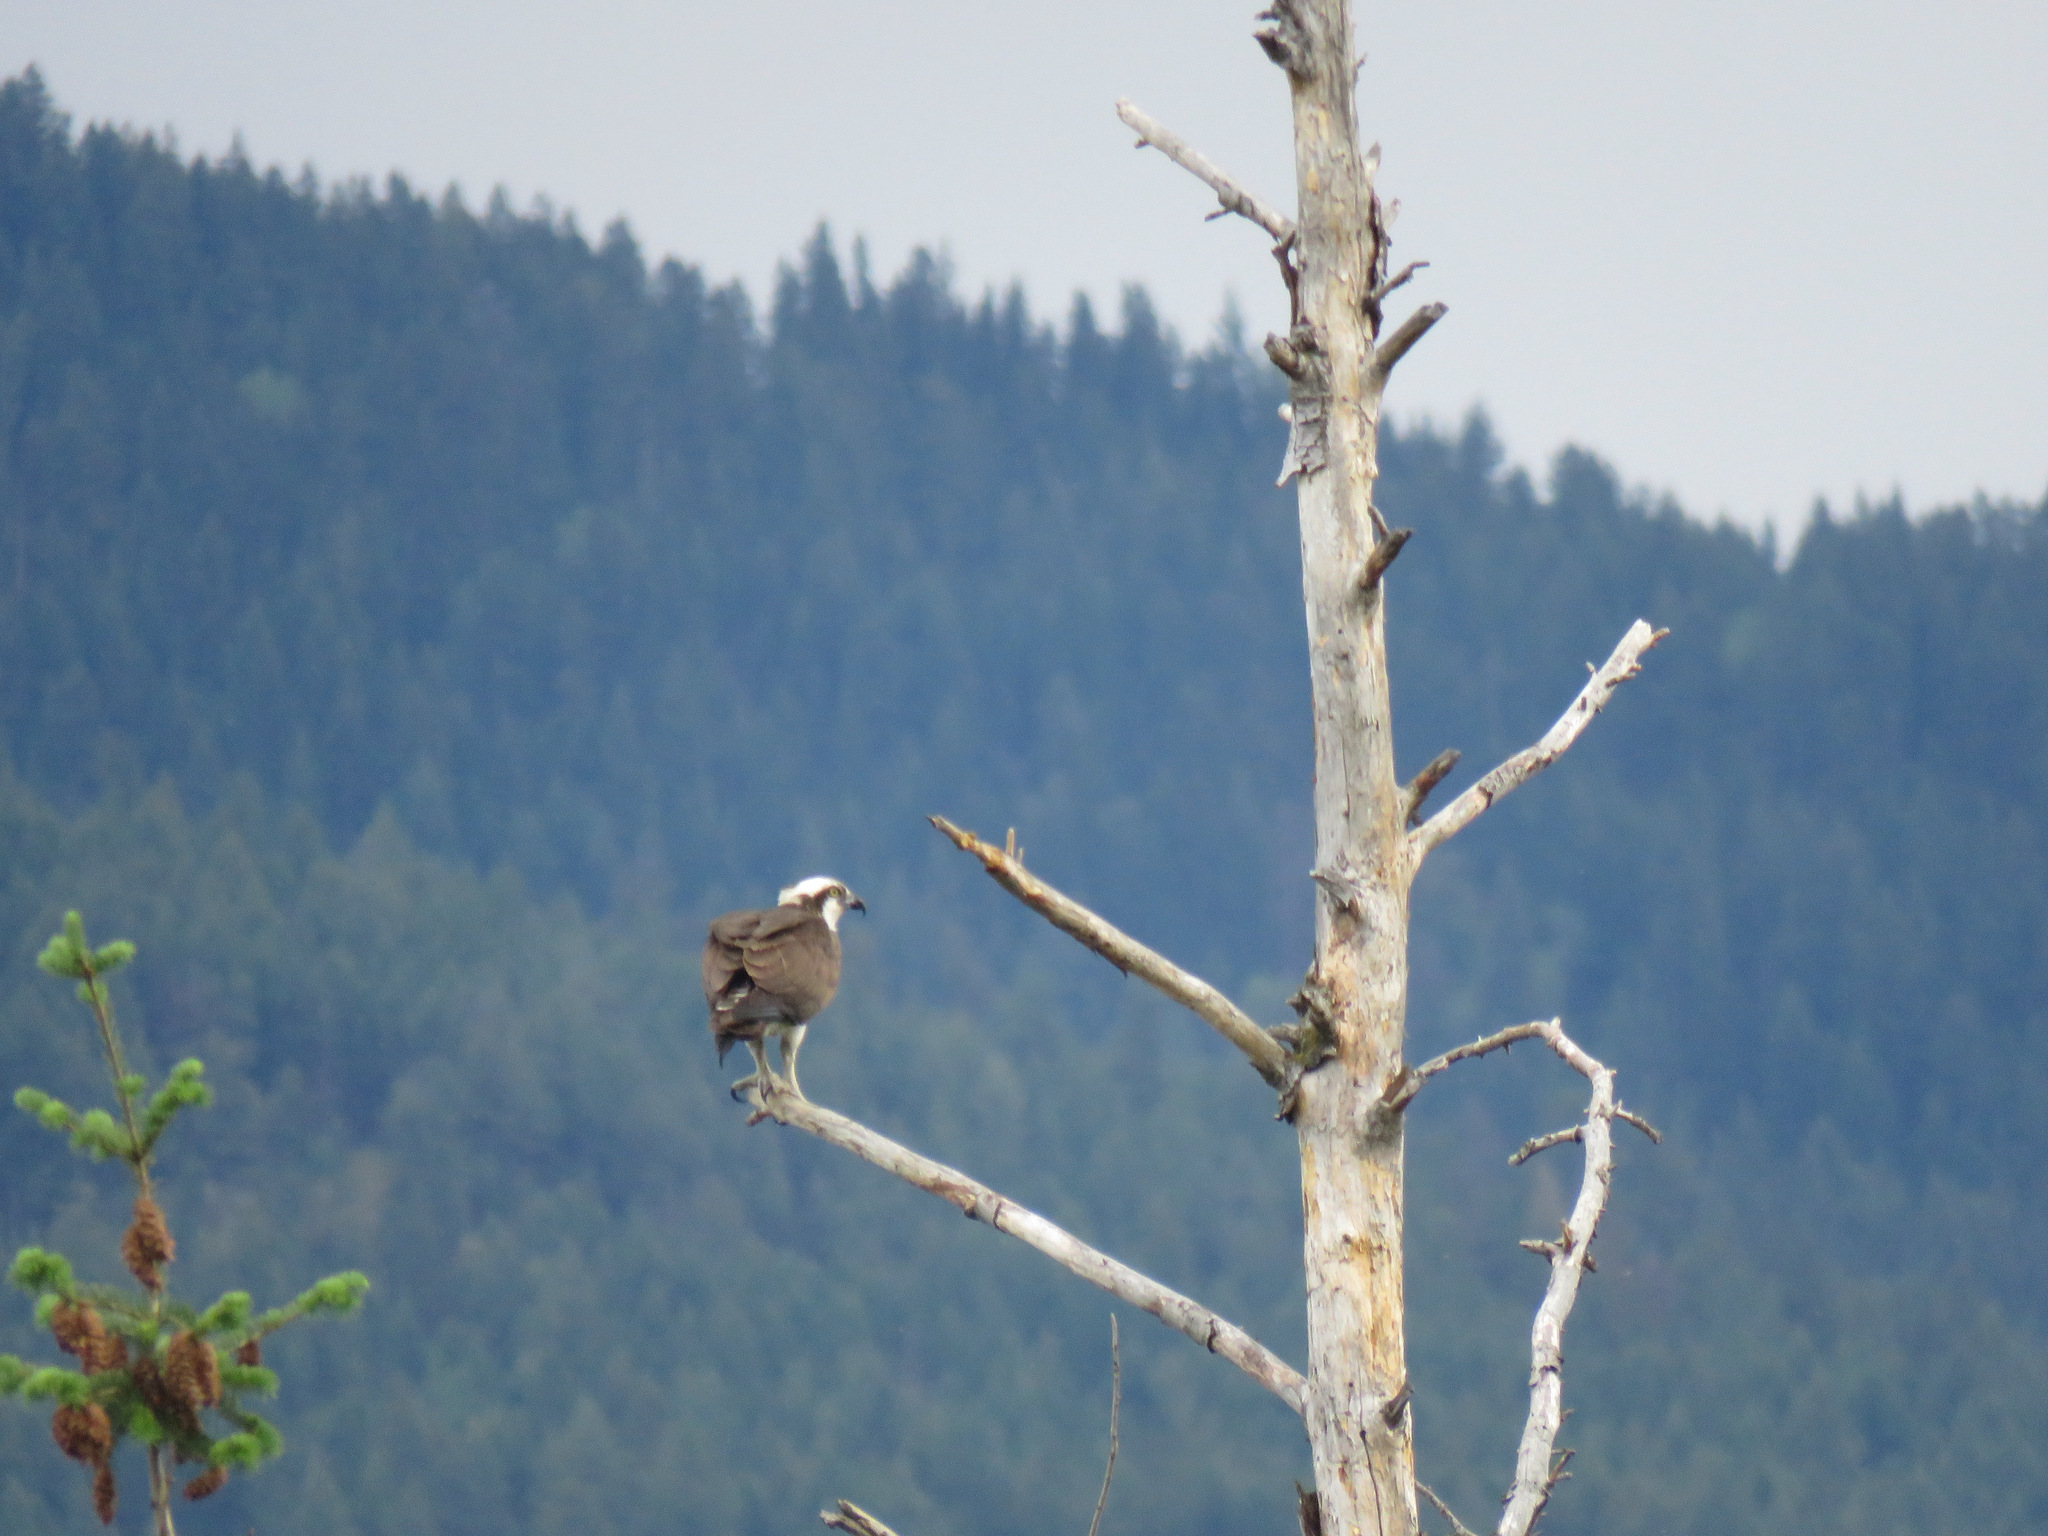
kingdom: Animalia
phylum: Chordata
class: Aves
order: Accipitriformes
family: Pandionidae
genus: Pandion
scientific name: Pandion haliaetus
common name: Osprey
